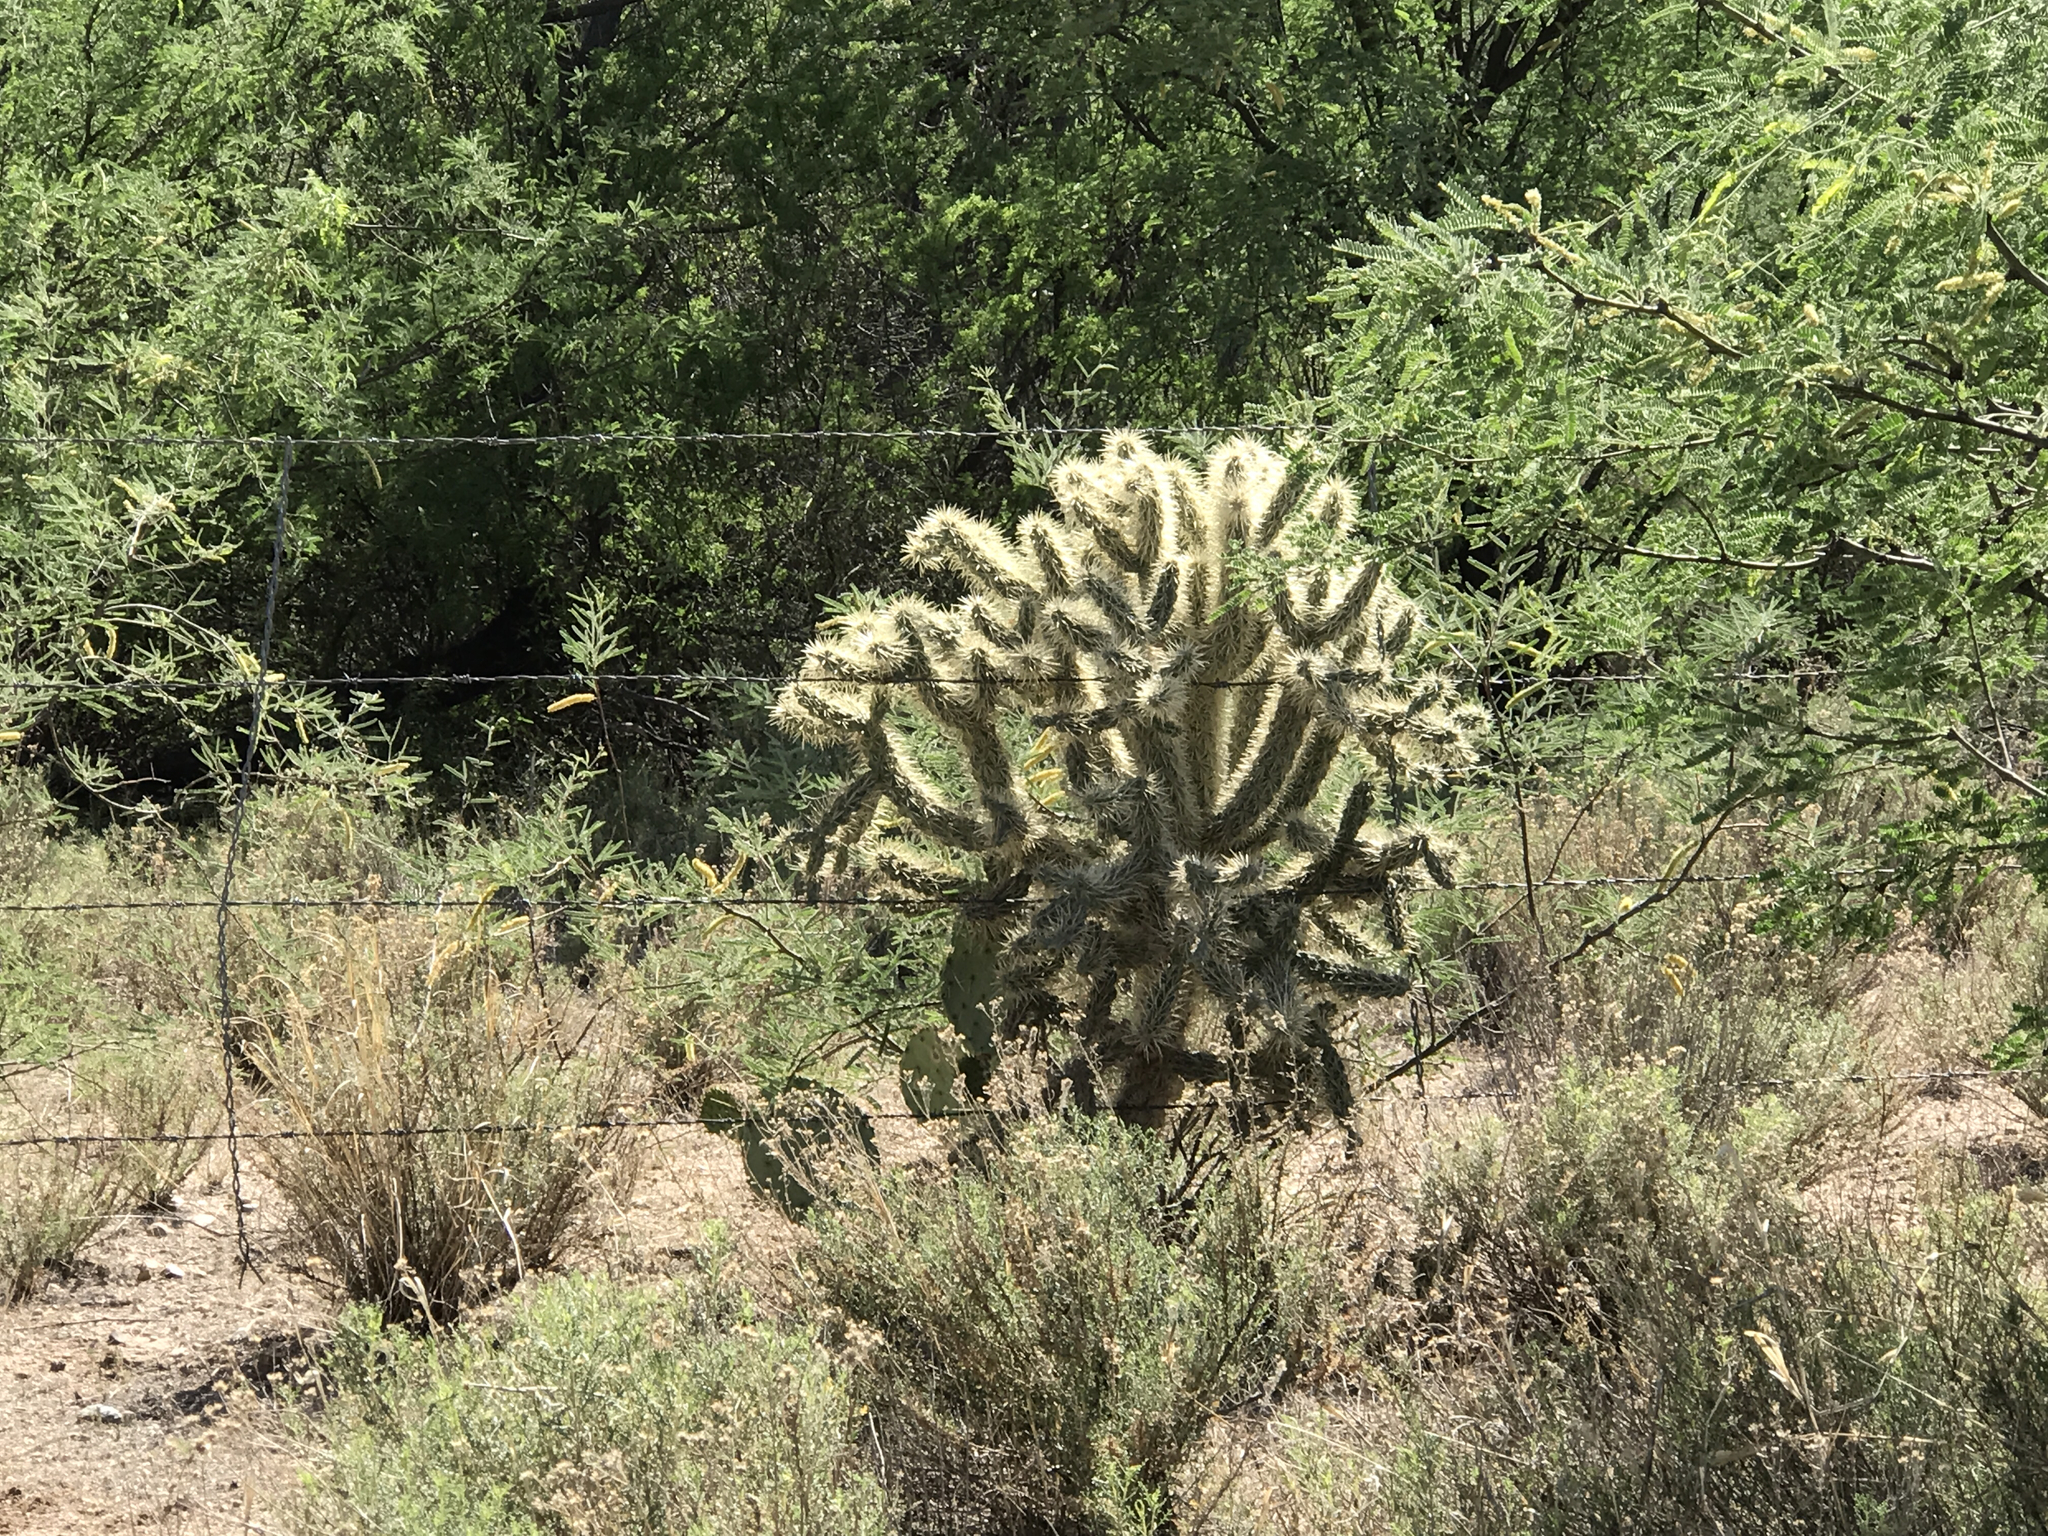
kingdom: Plantae
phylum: Tracheophyta
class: Magnoliopsida
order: Caryophyllales
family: Cactaceae
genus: Cylindropuntia
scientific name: Cylindropuntia fulgida
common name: Jumping cholla
